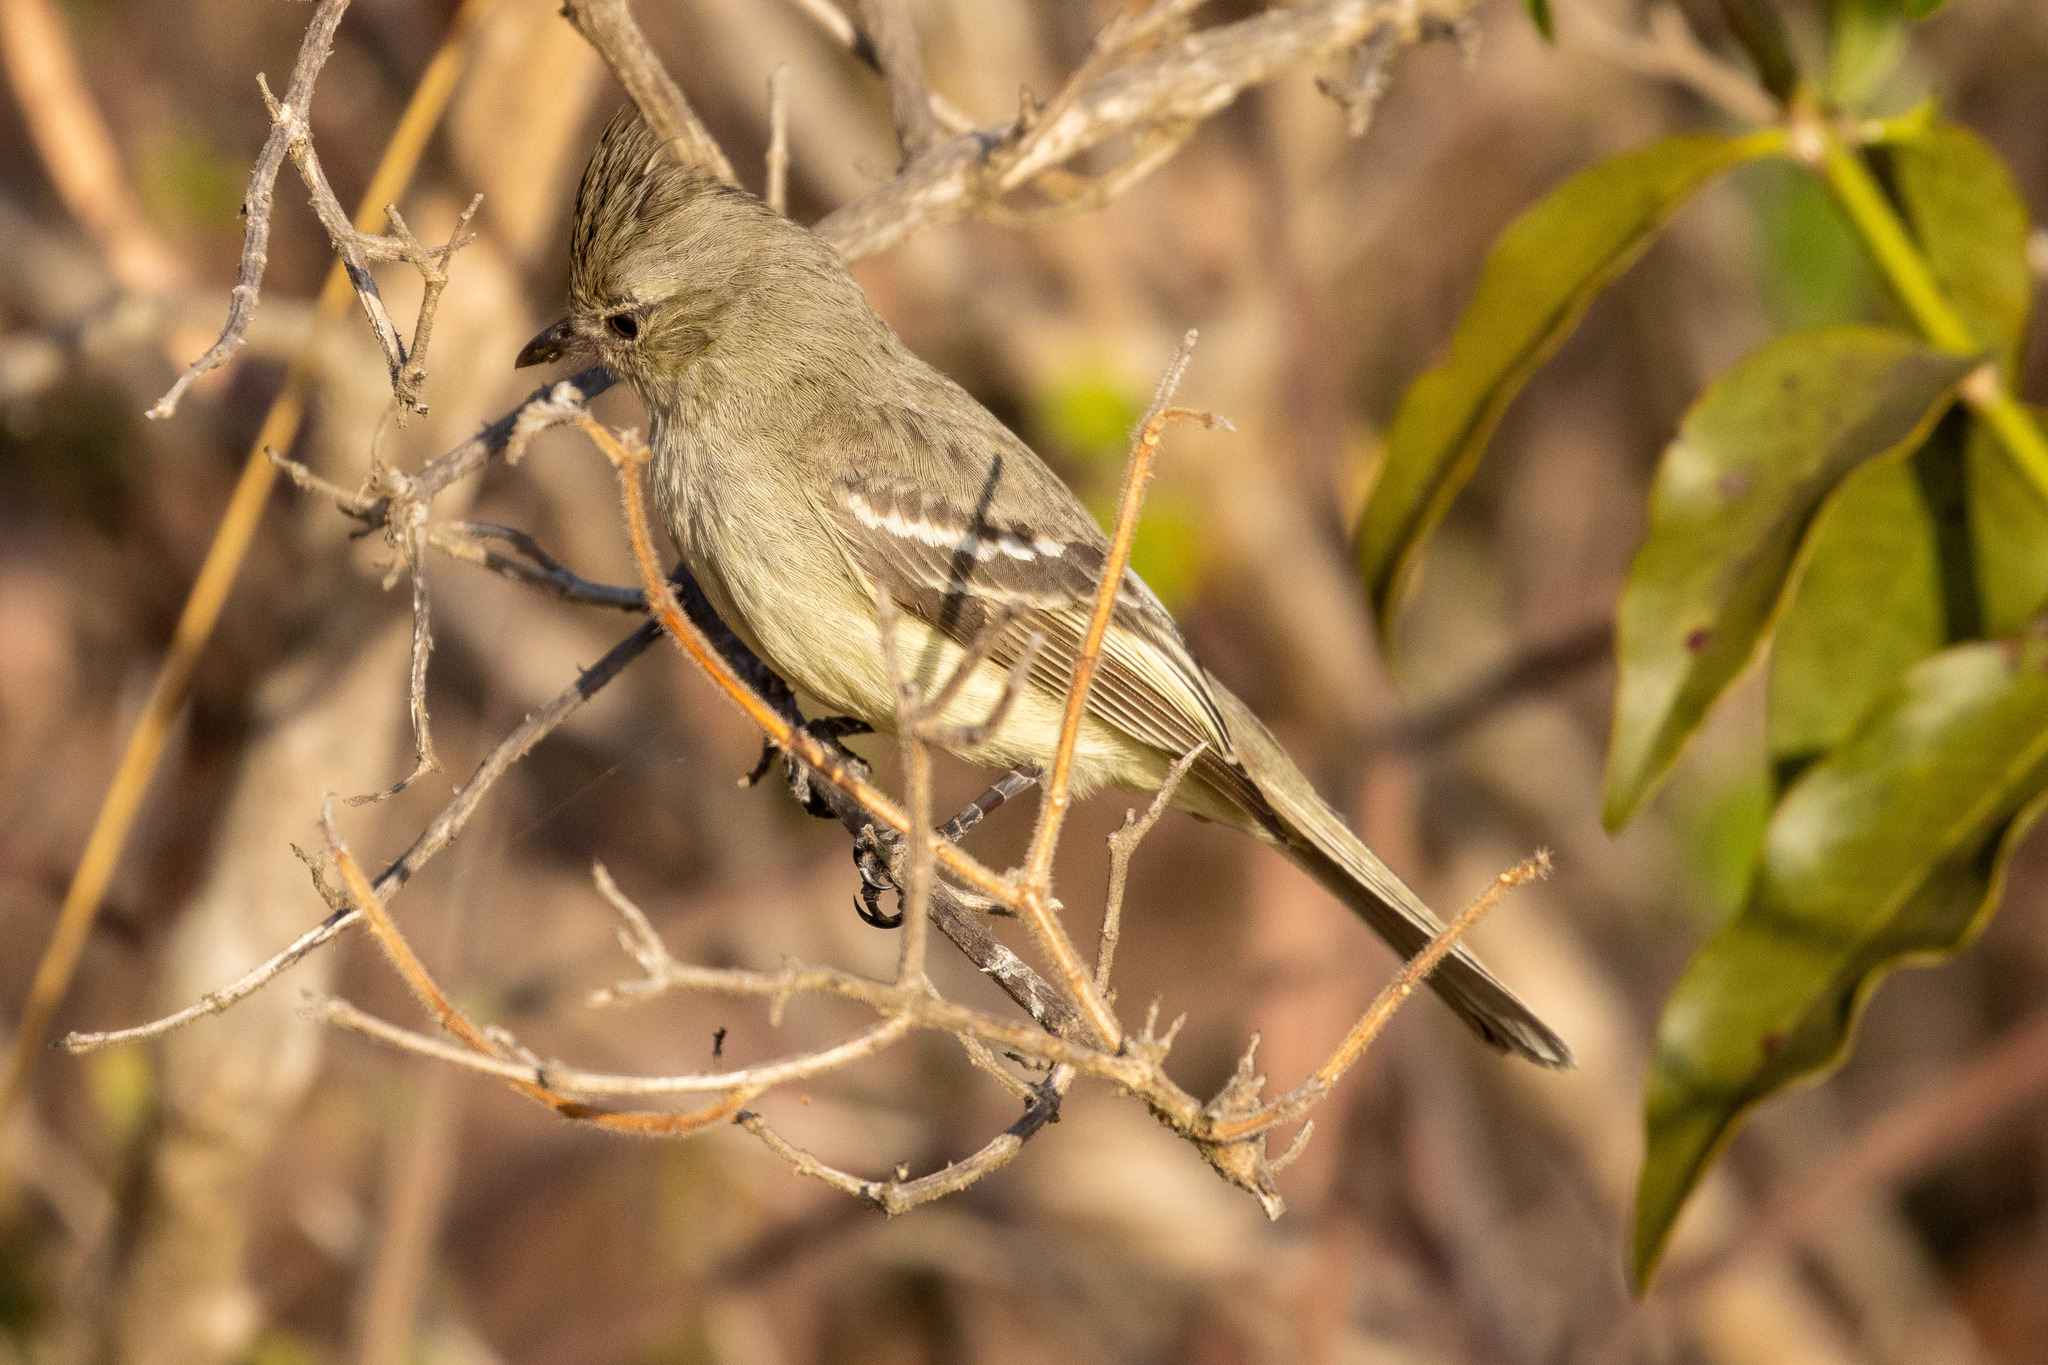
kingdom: Animalia
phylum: Chordata
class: Aves
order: Passeriformes
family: Tyrannidae
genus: Elaenia
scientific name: Elaenia cristata
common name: Plain-crested elaenia
